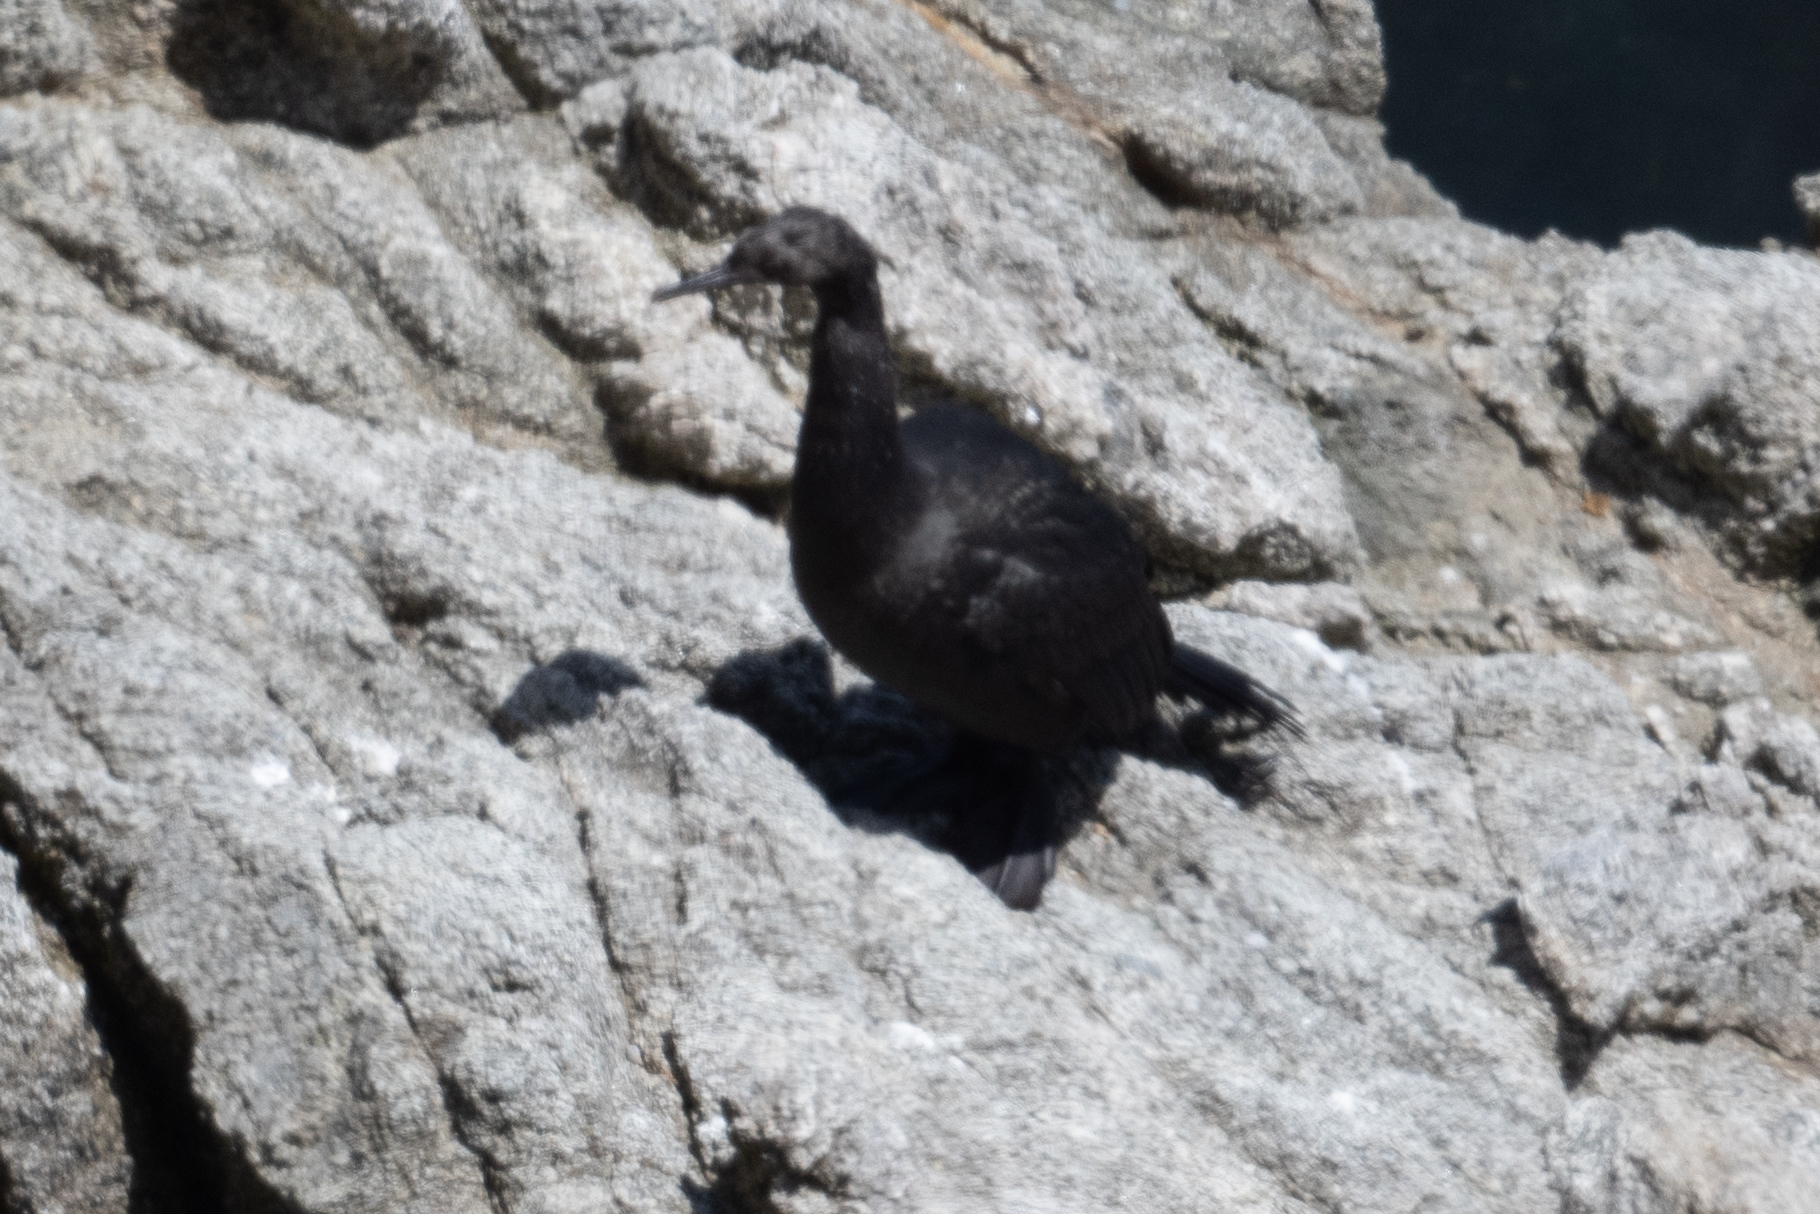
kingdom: Animalia
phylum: Chordata
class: Aves
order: Suliformes
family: Phalacrocoracidae
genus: Phalacrocorax
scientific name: Phalacrocorax pelagicus
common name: Pelagic cormorant
